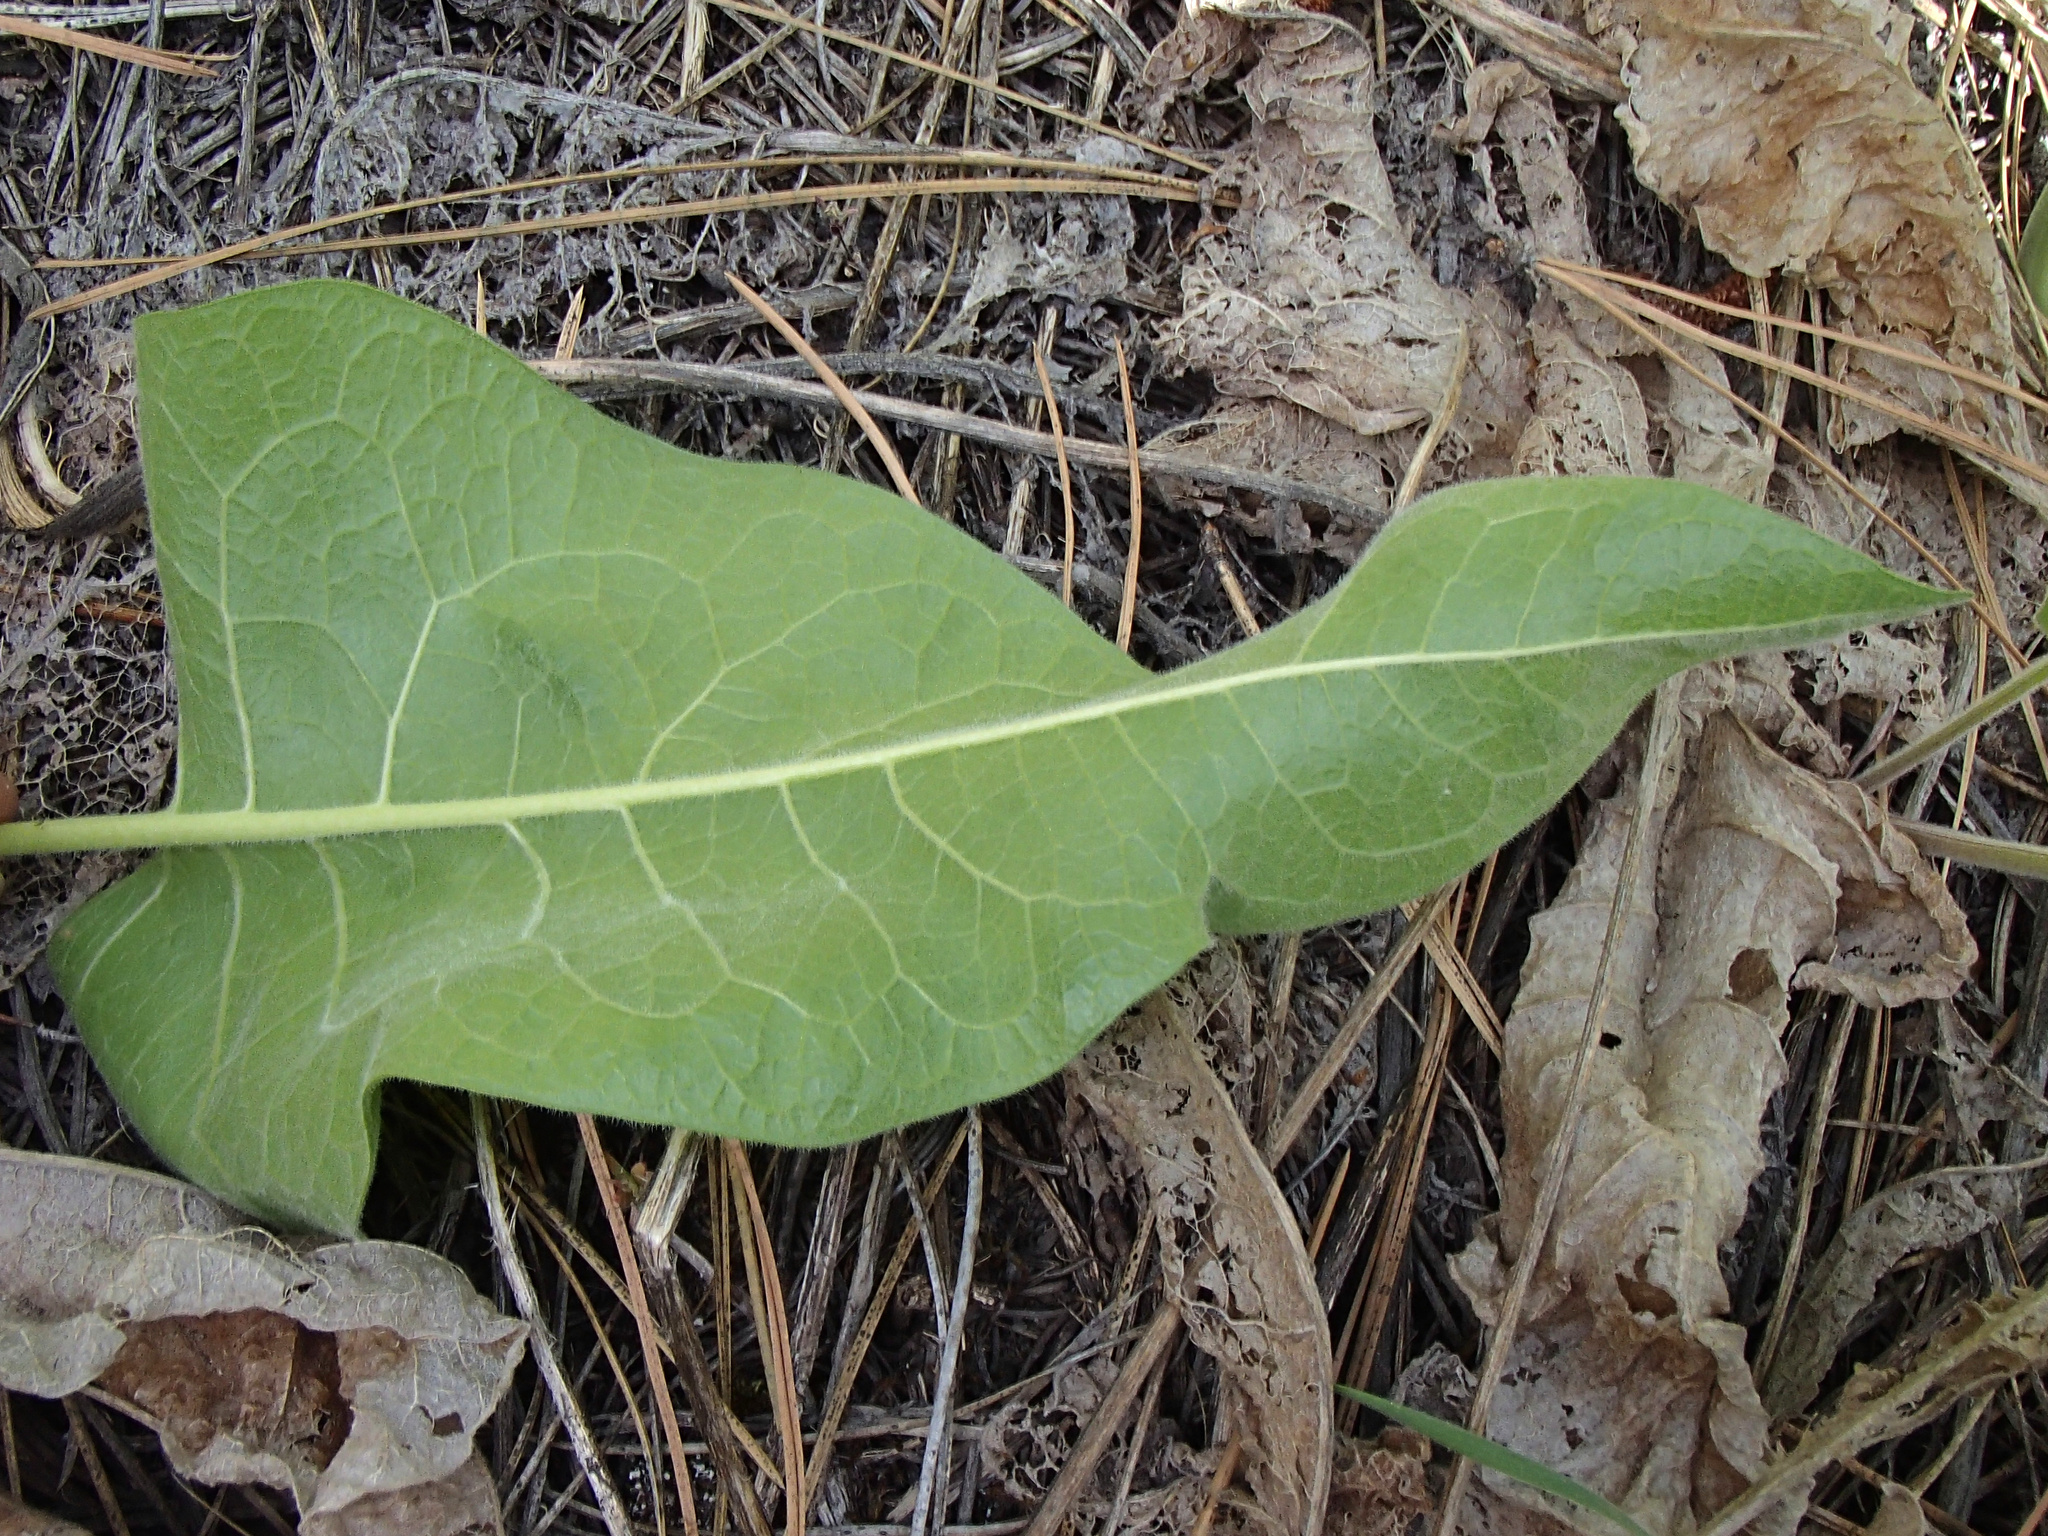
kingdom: Plantae
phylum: Tracheophyta
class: Magnoliopsida
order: Asterales
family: Asteraceae
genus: Balsamorhiza
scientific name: Balsamorhiza careyana
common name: Carey's balsamroot
